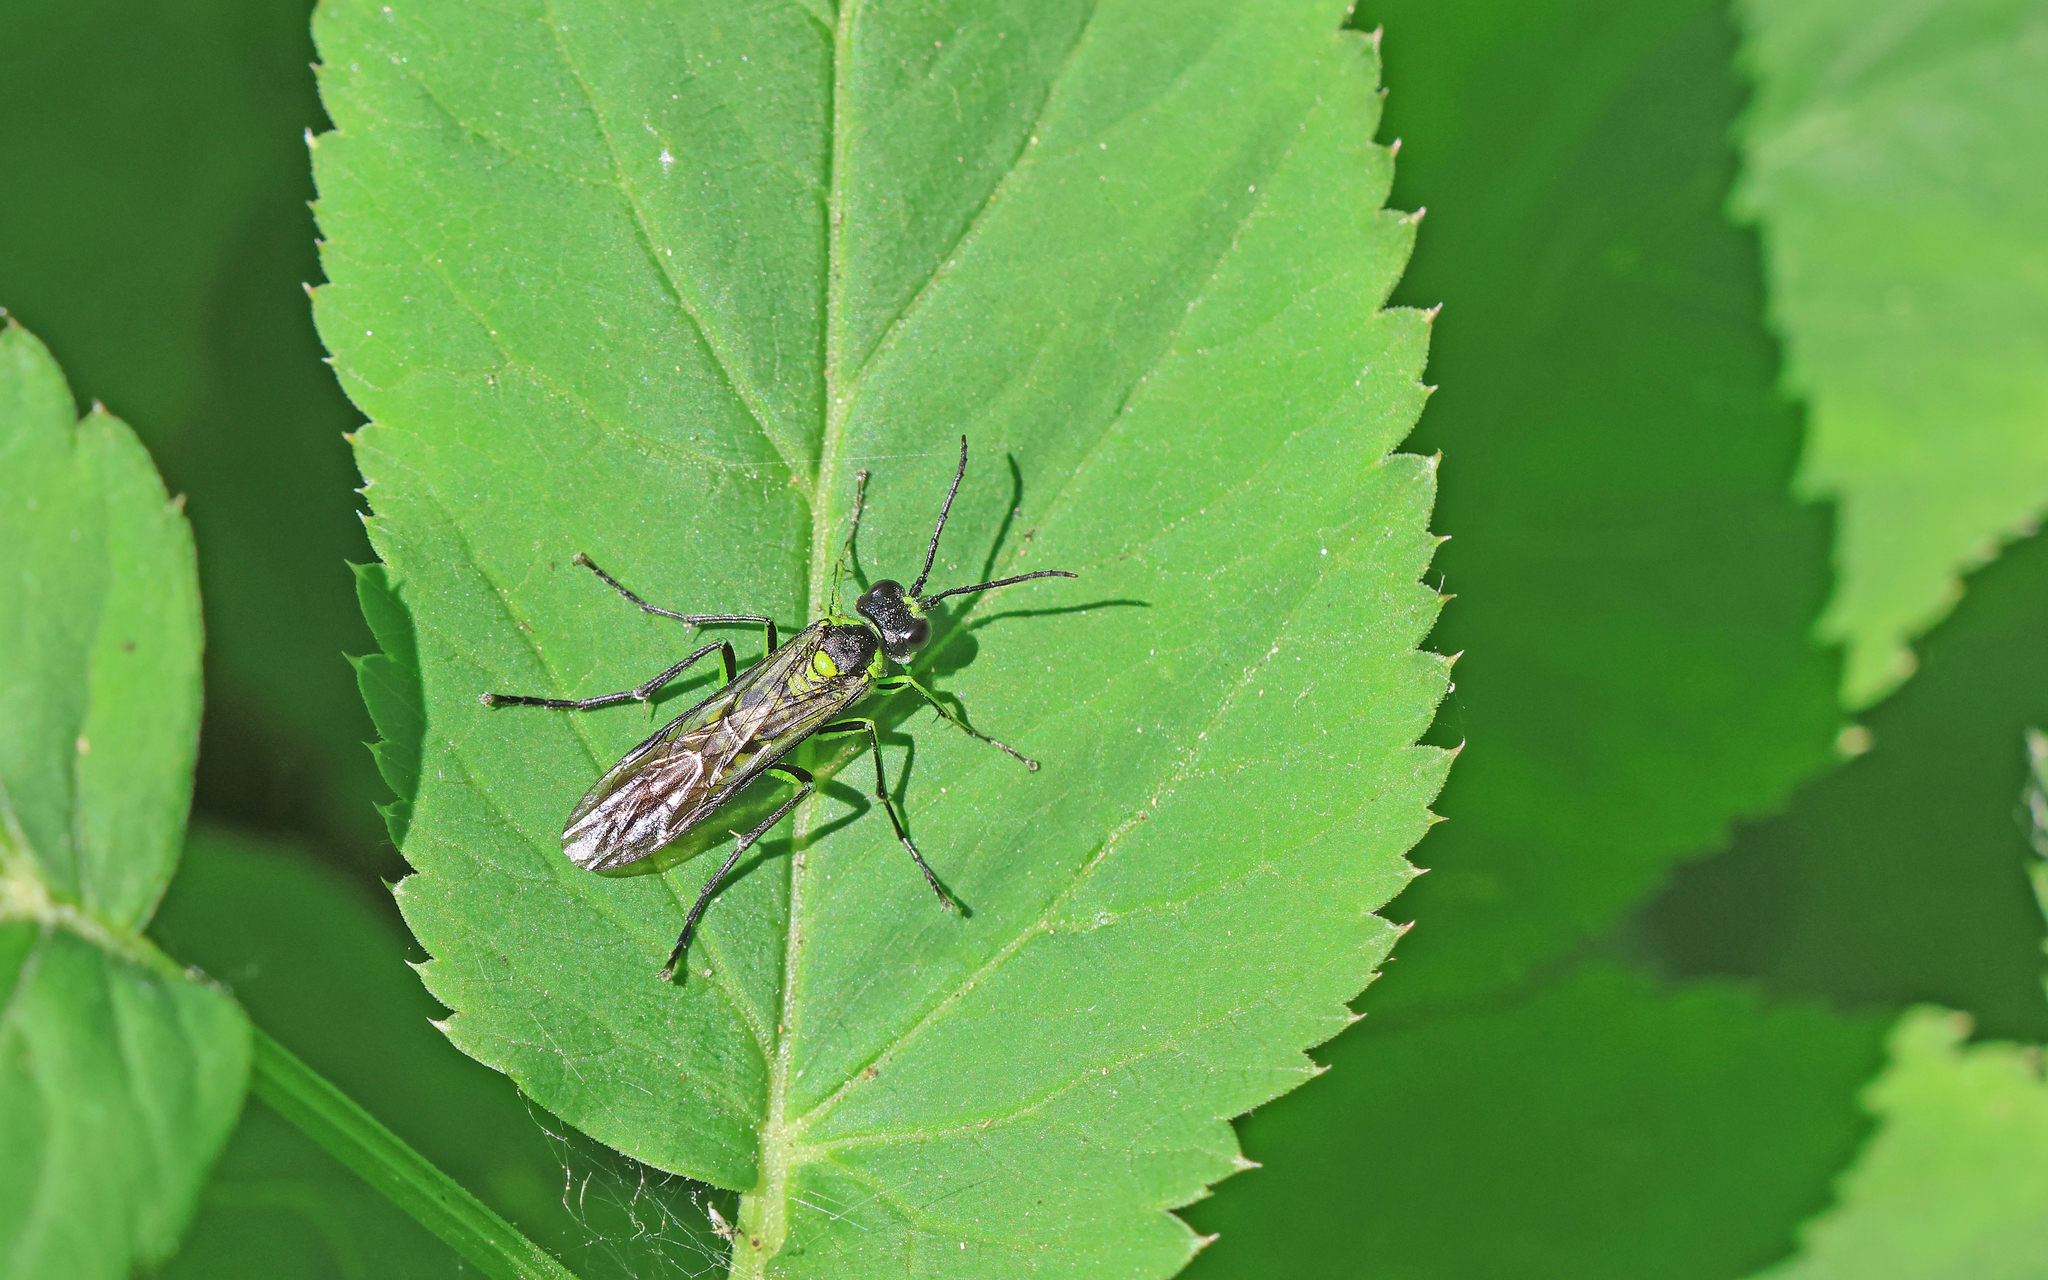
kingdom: Animalia
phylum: Arthropoda
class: Insecta
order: Hymenoptera
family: Tenthredinidae
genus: Tenthredo
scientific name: Tenthredo mesomela
